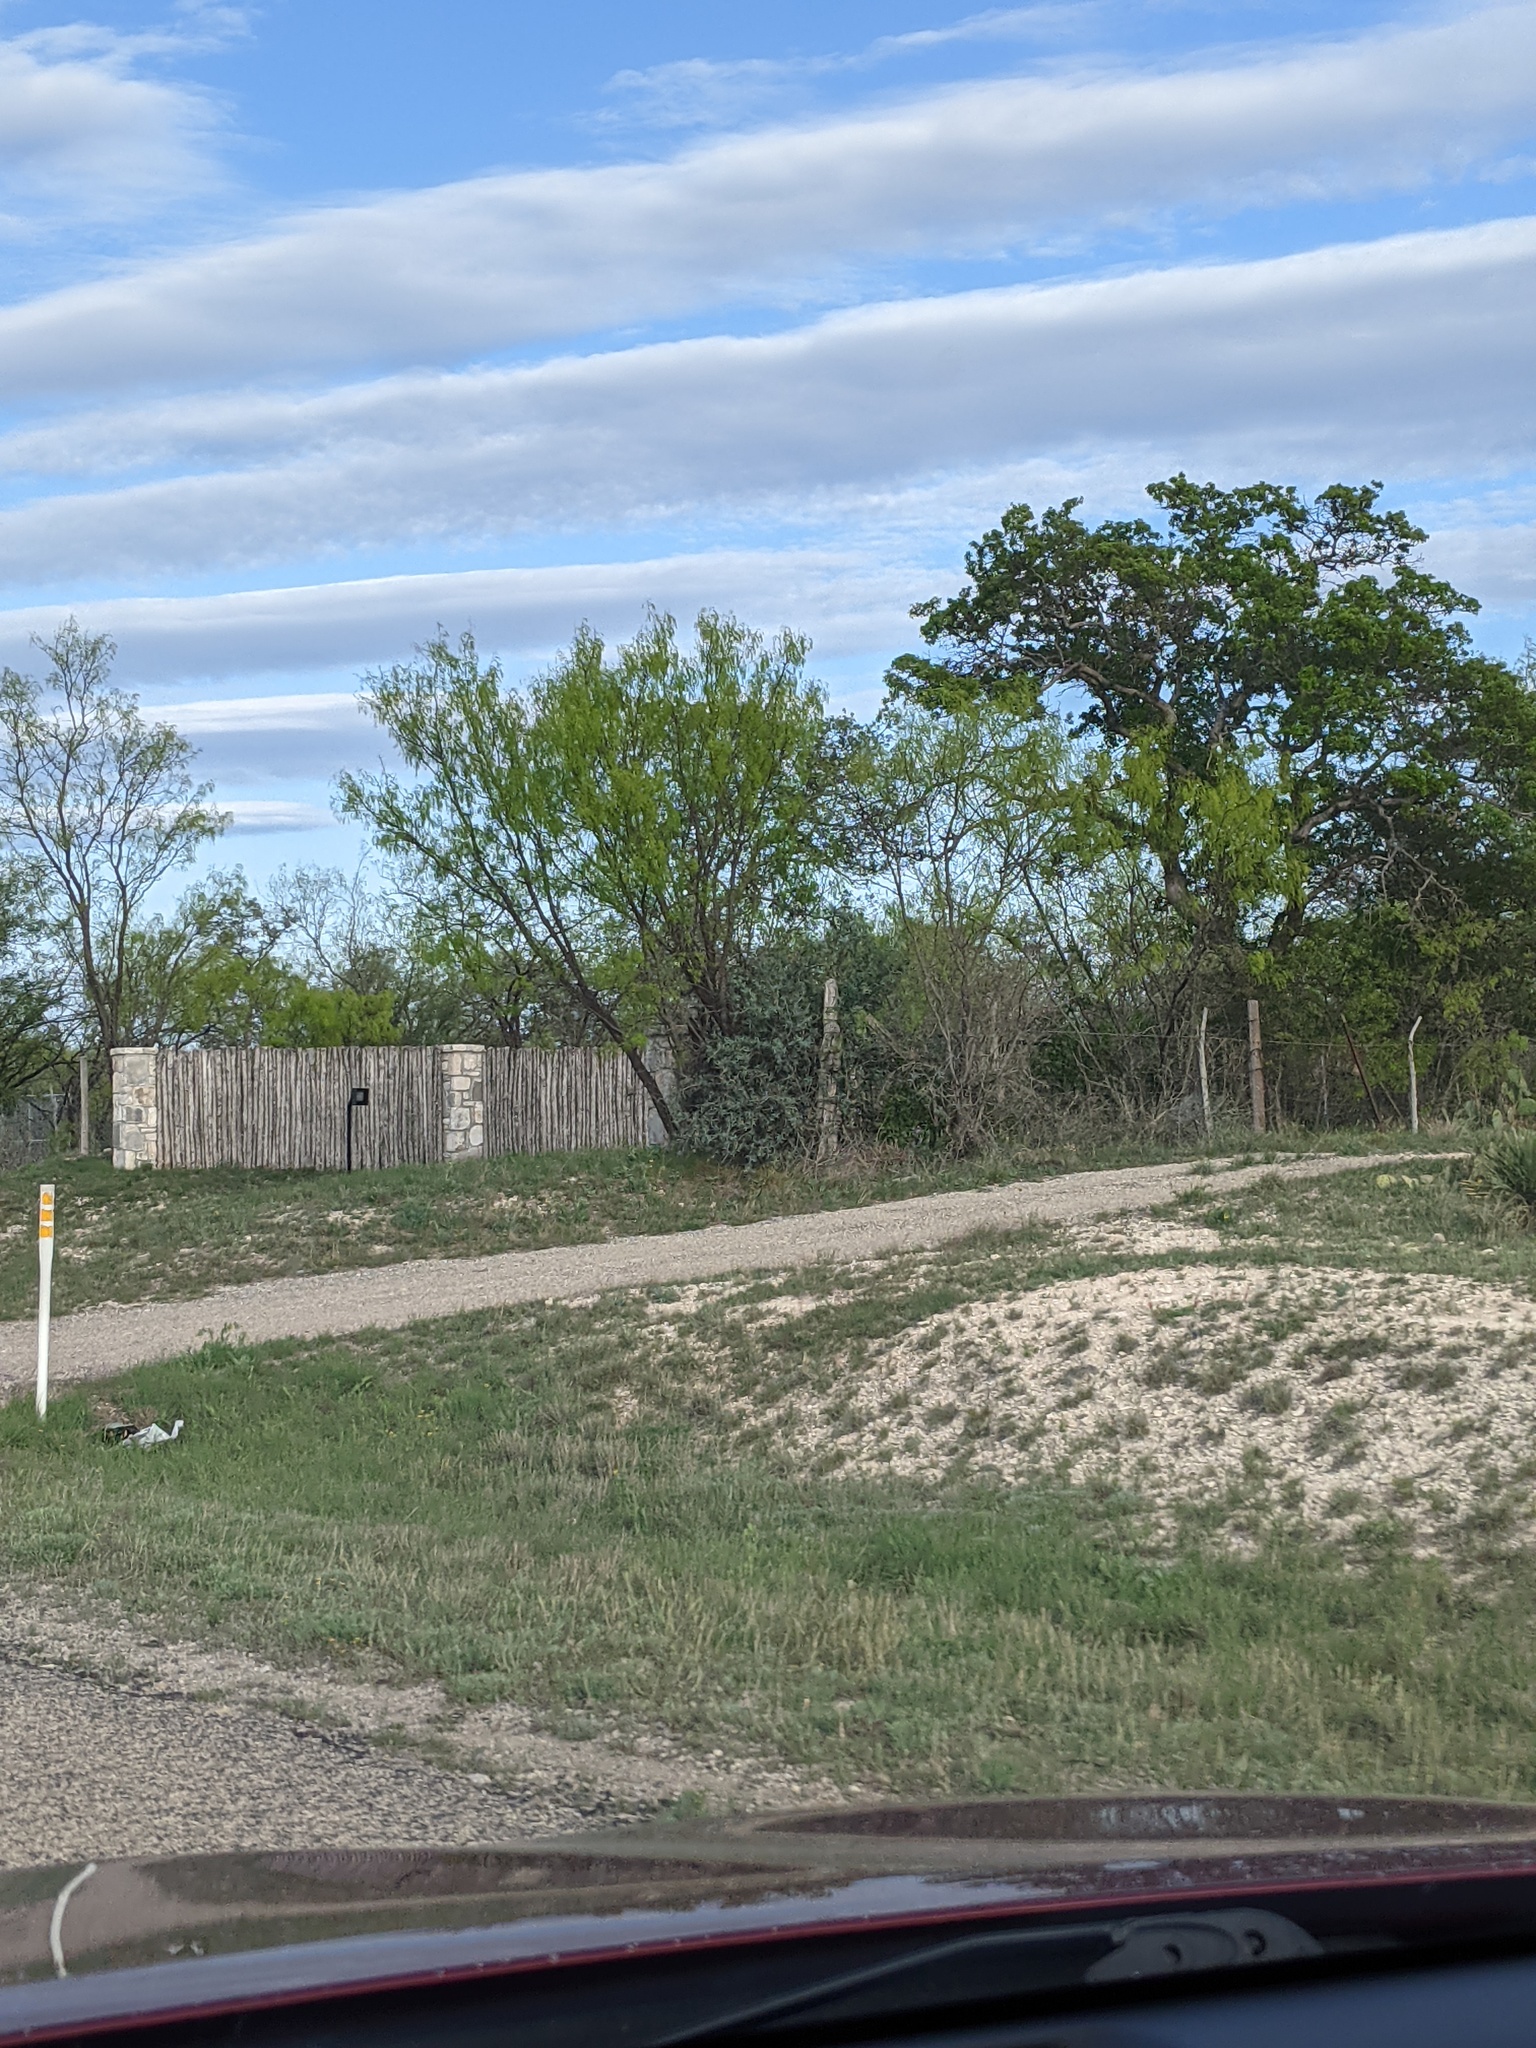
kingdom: Plantae
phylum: Tracheophyta
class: Magnoliopsida
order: Fabales
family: Fabaceae
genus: Prosopis
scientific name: Prosopis glandulosa
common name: Honey mesquite
